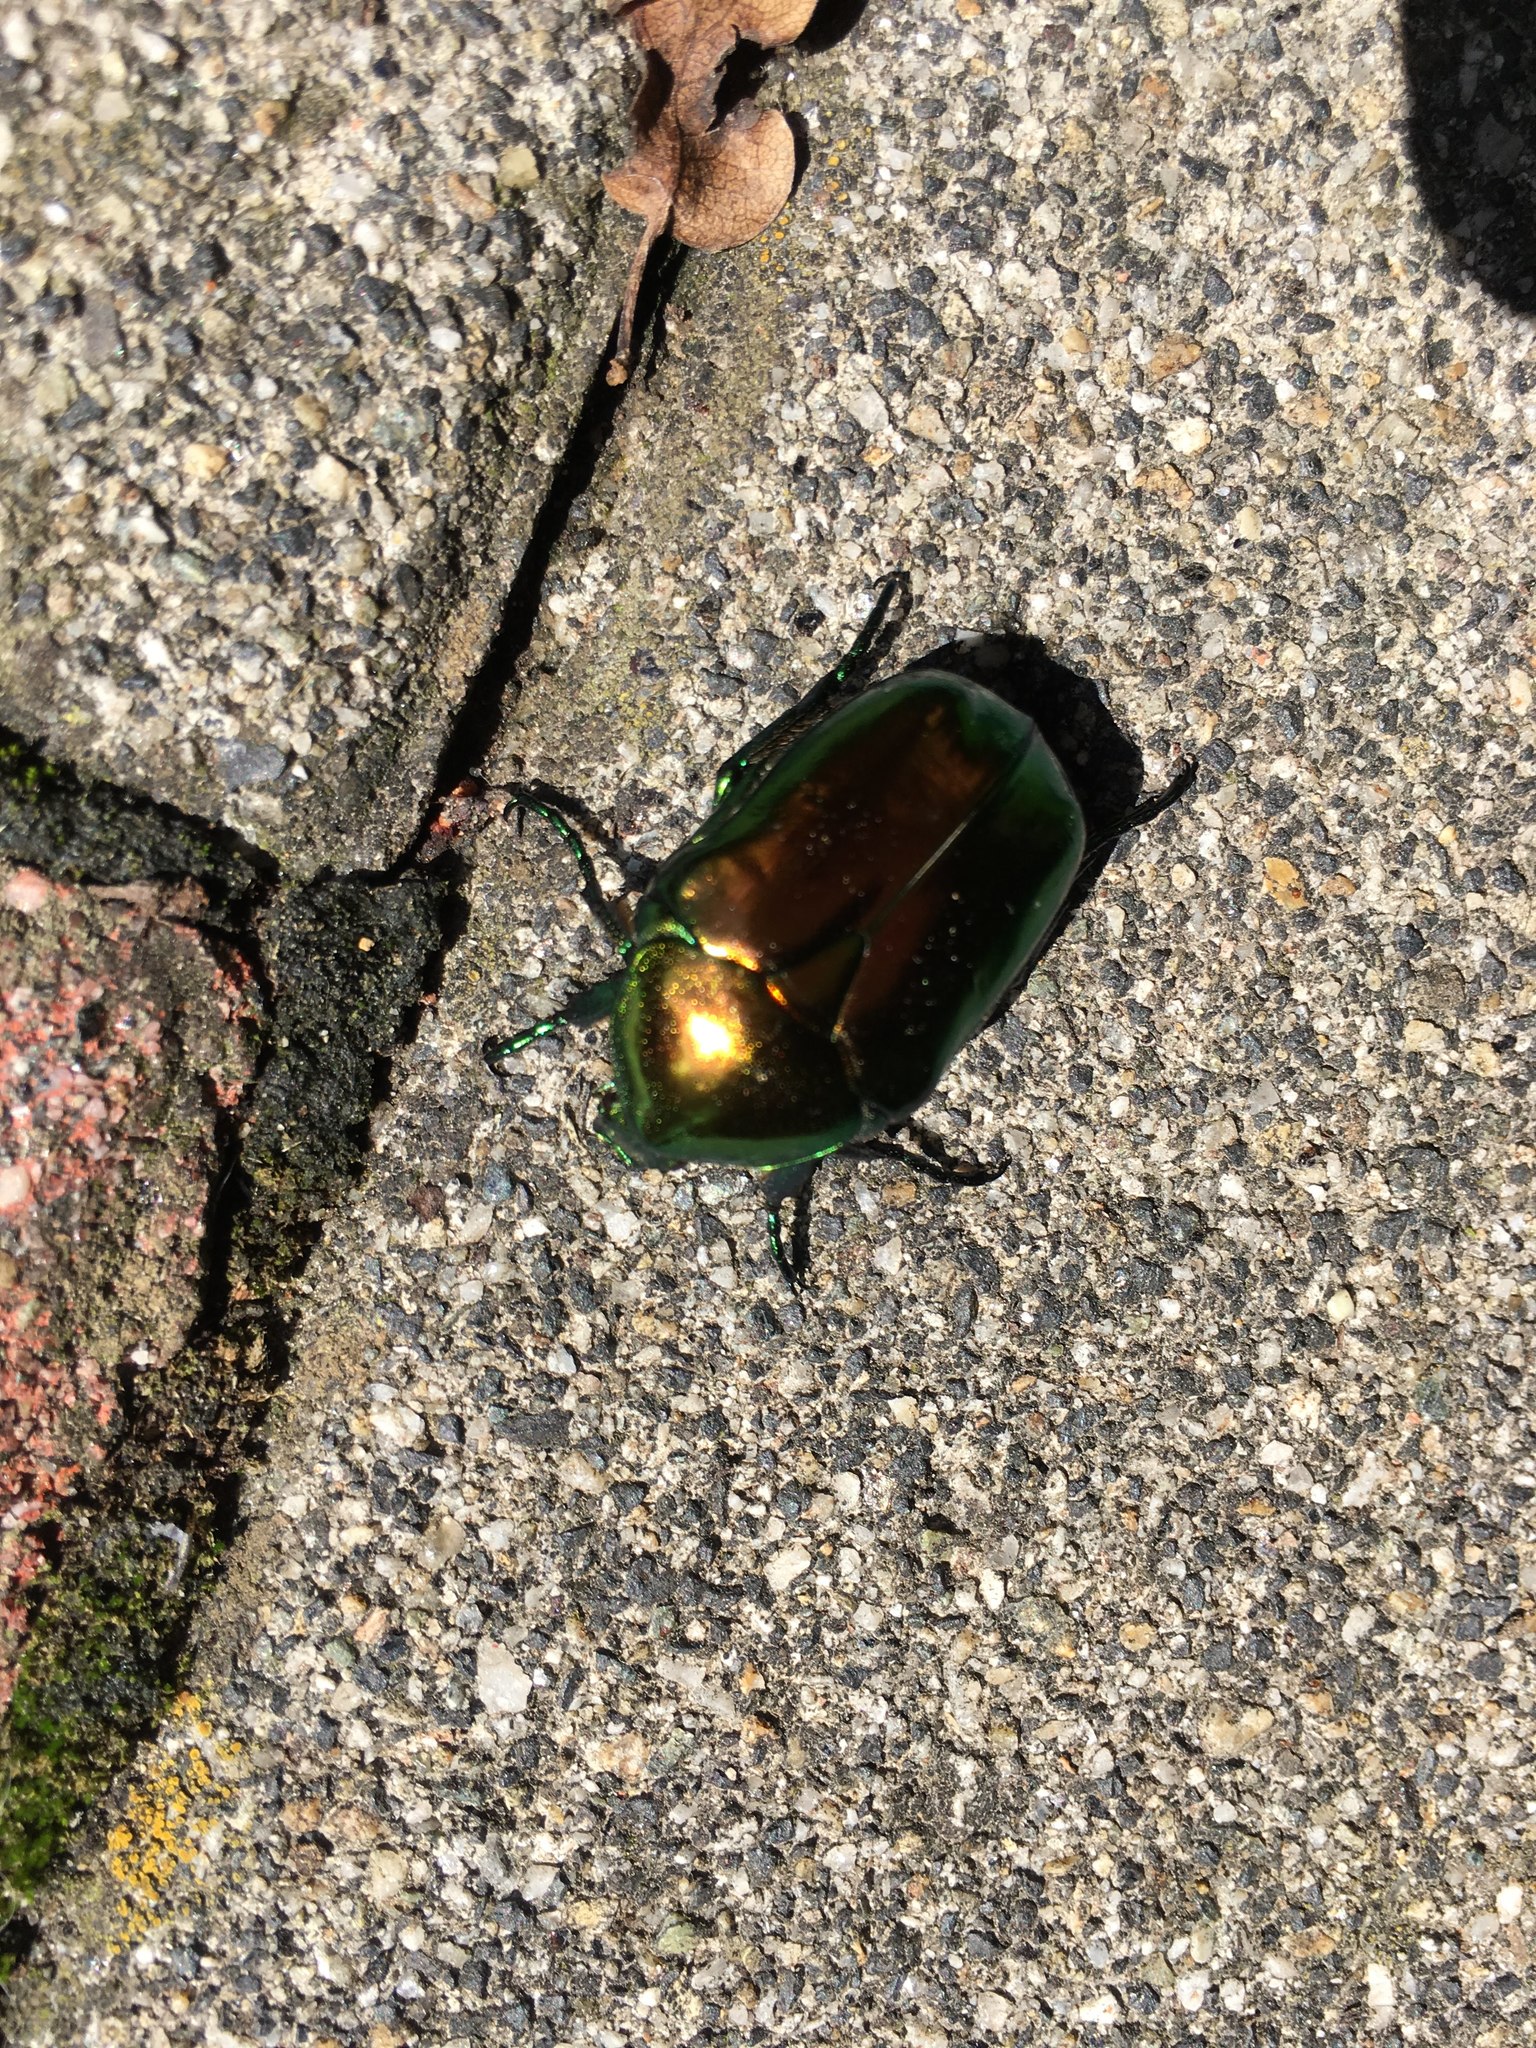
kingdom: Animalia
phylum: Arthropoda
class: Insecta
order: Coleoptera
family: Scarabaeidae
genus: Protaetia
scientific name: Protaetia speciosissima
